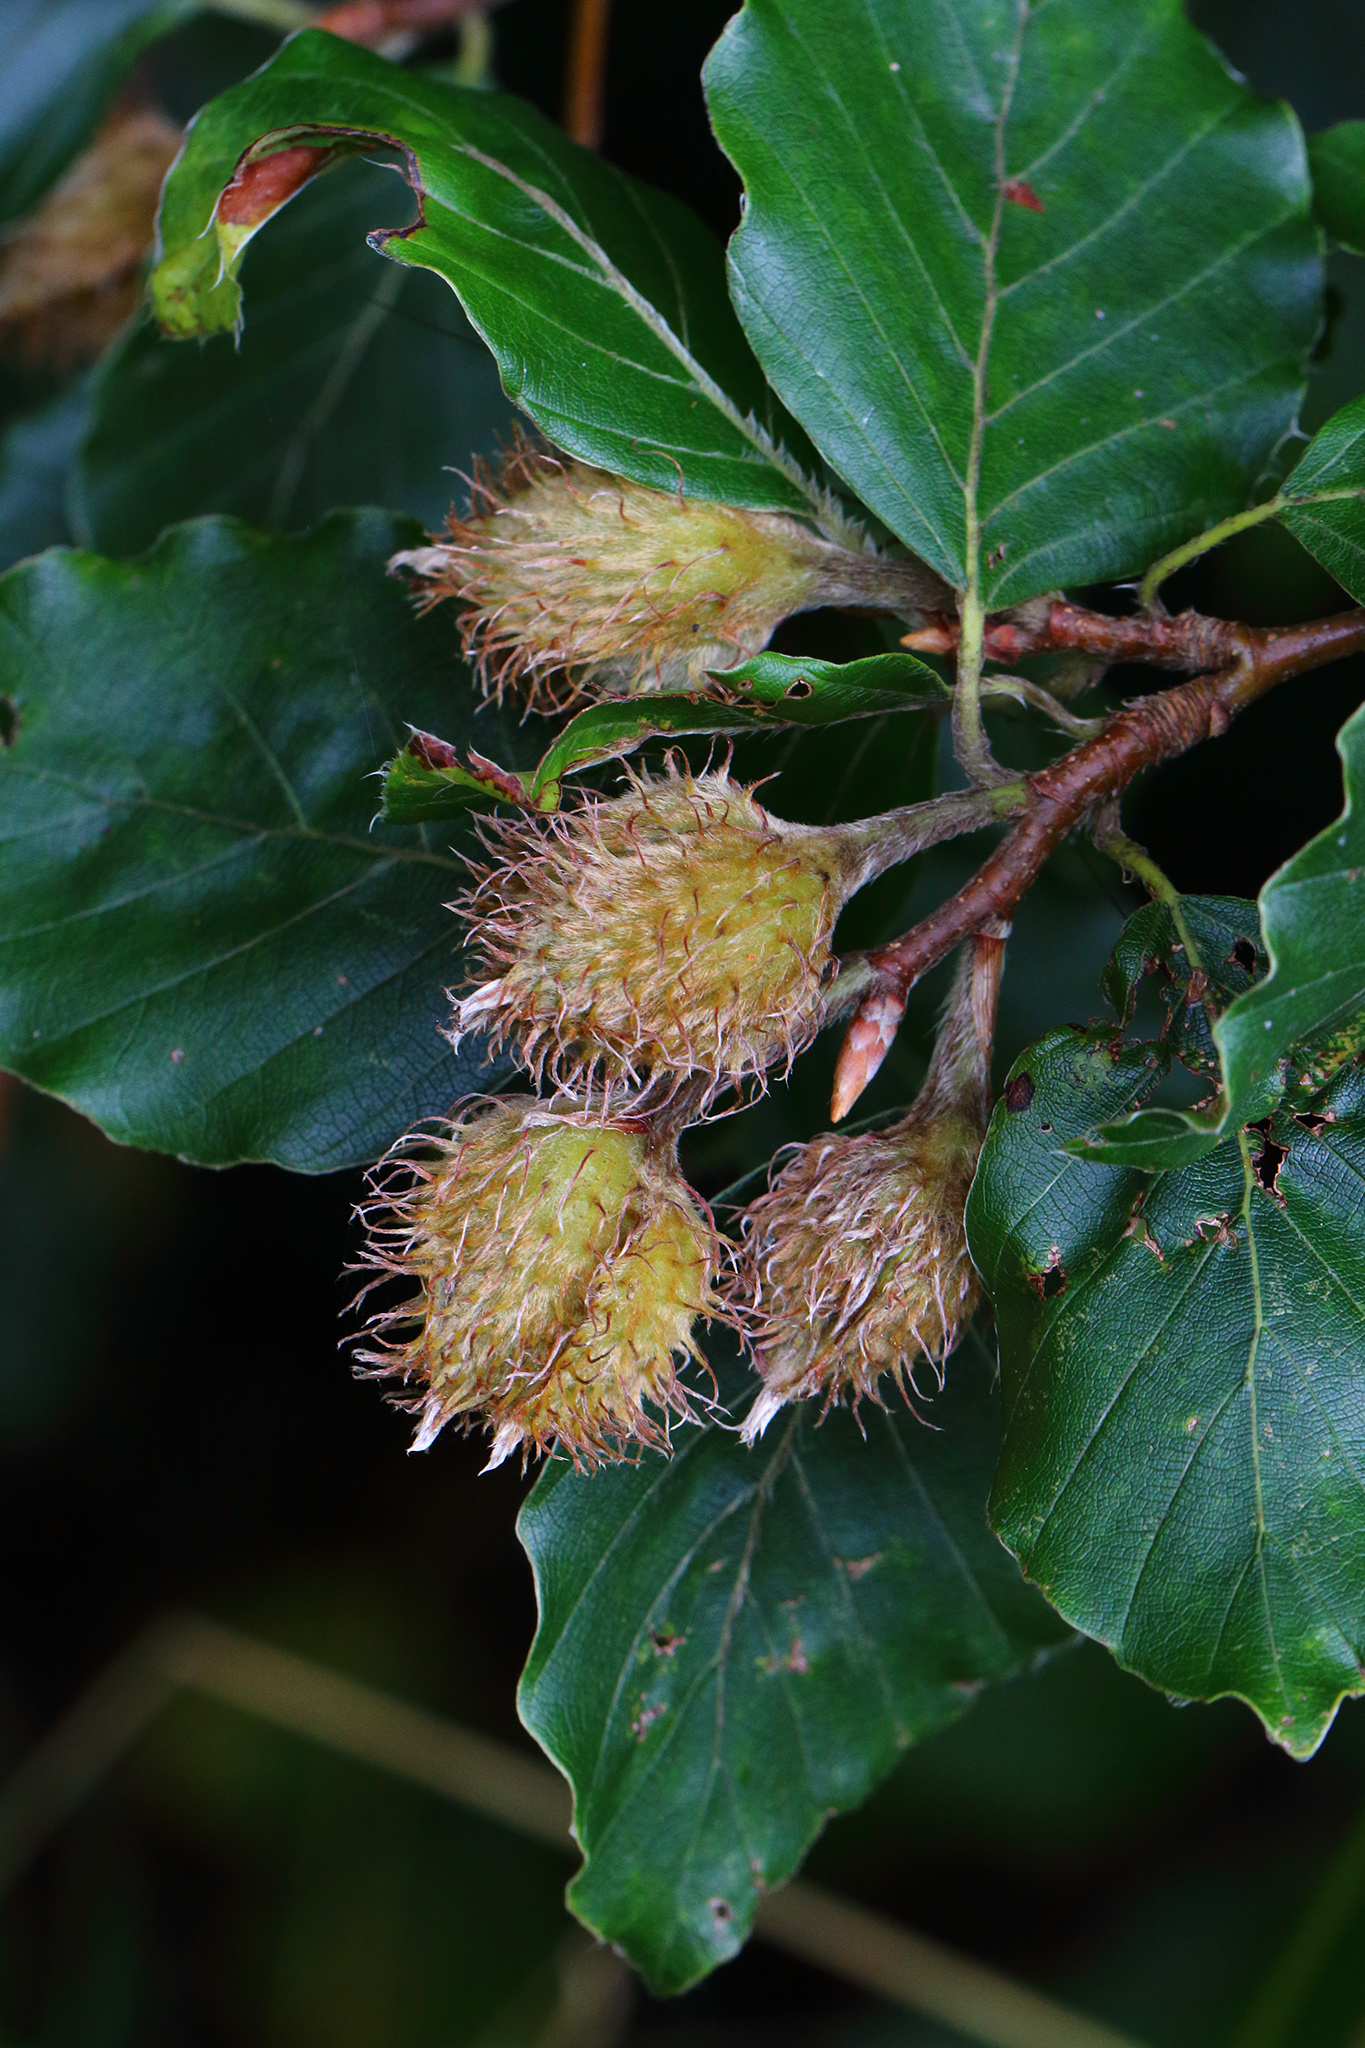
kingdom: Plantae
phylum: Tracheophyta
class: Magnoliopsida
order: Fagales
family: Fagaceae
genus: Fagus
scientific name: Fagus sylvatica
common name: Beech
